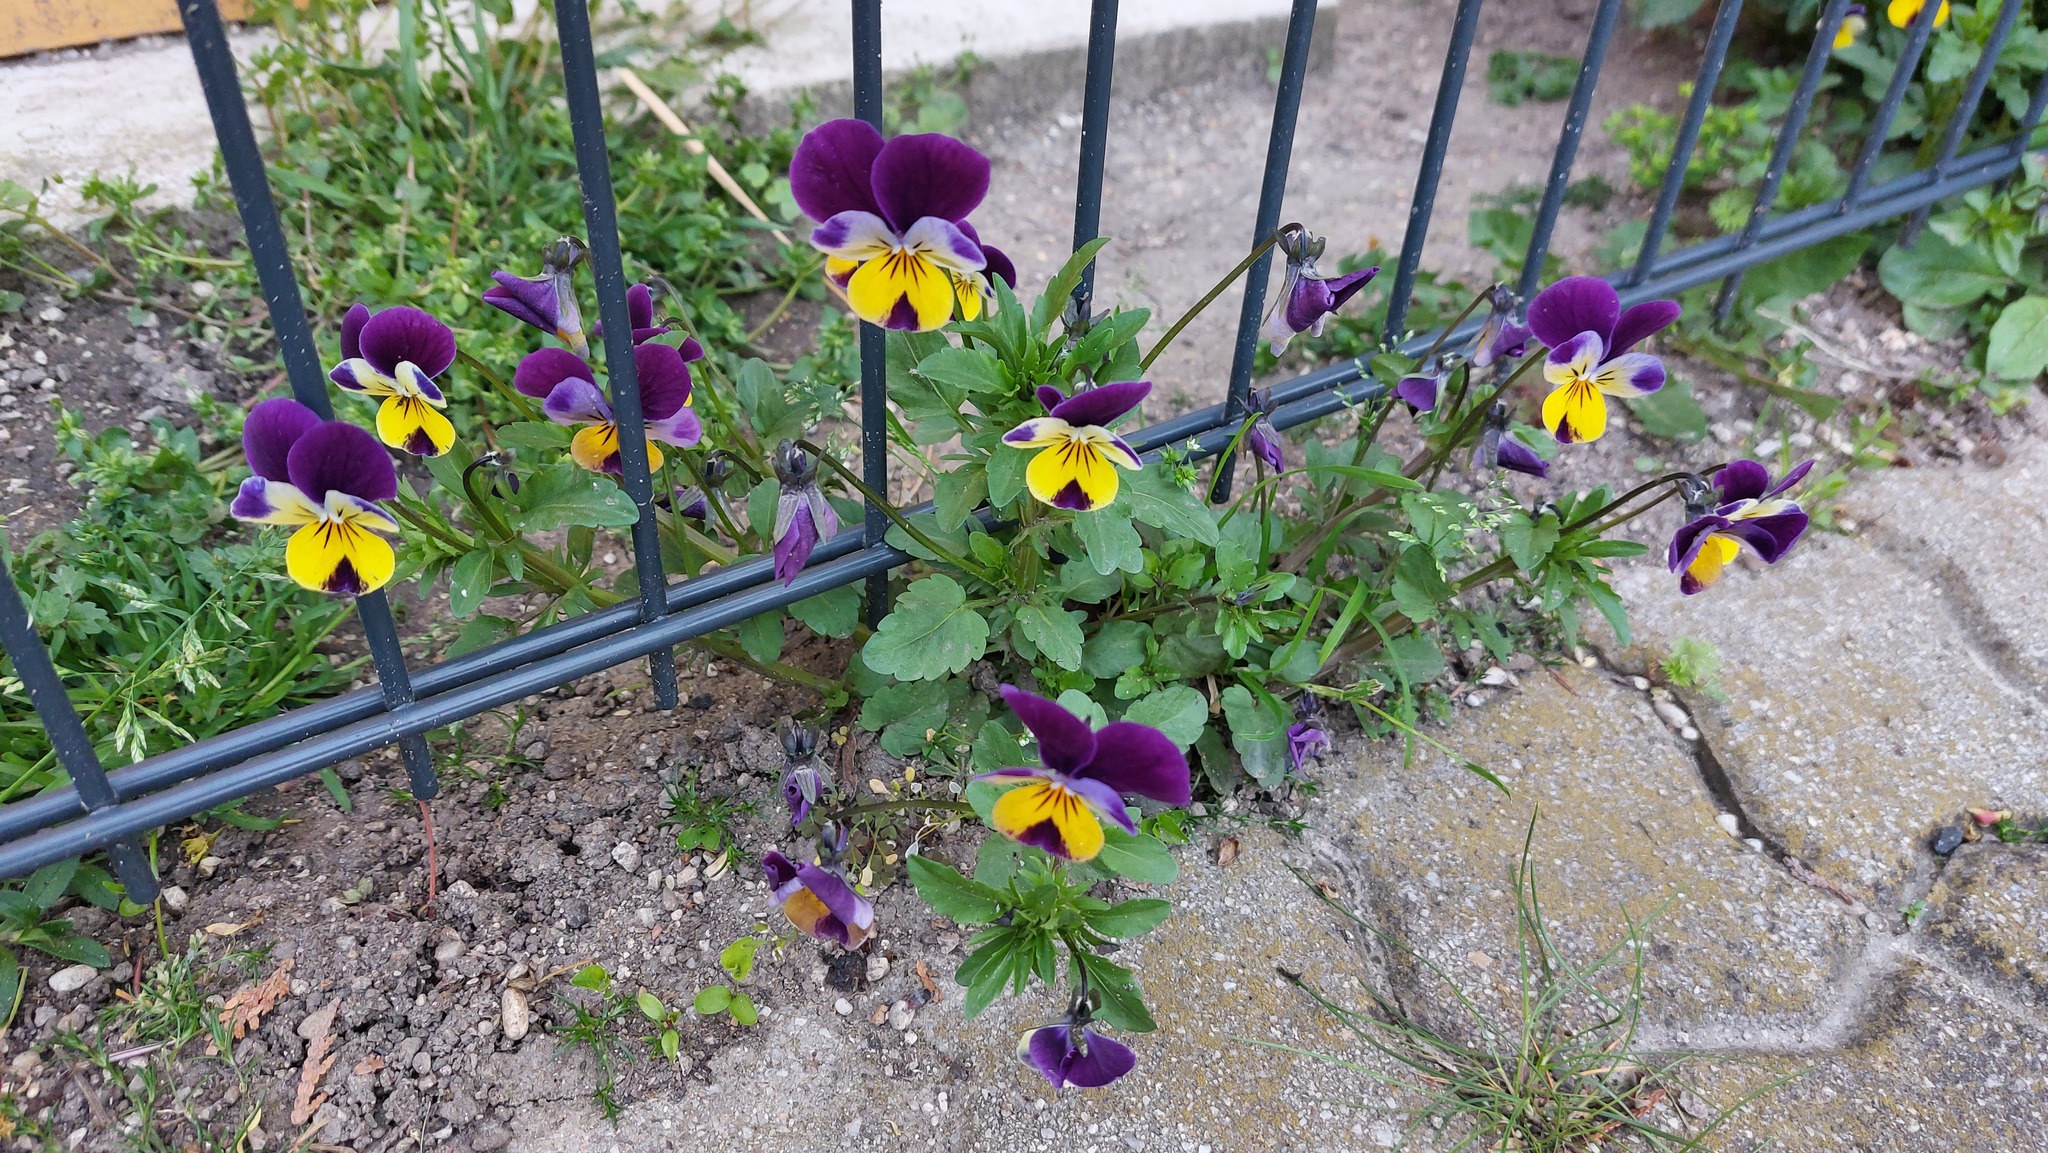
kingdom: Plantae
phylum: Tracheophyta
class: Magnoliopsida
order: Malpighiales
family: Violaceae
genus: Viola
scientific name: Viola williamsii
